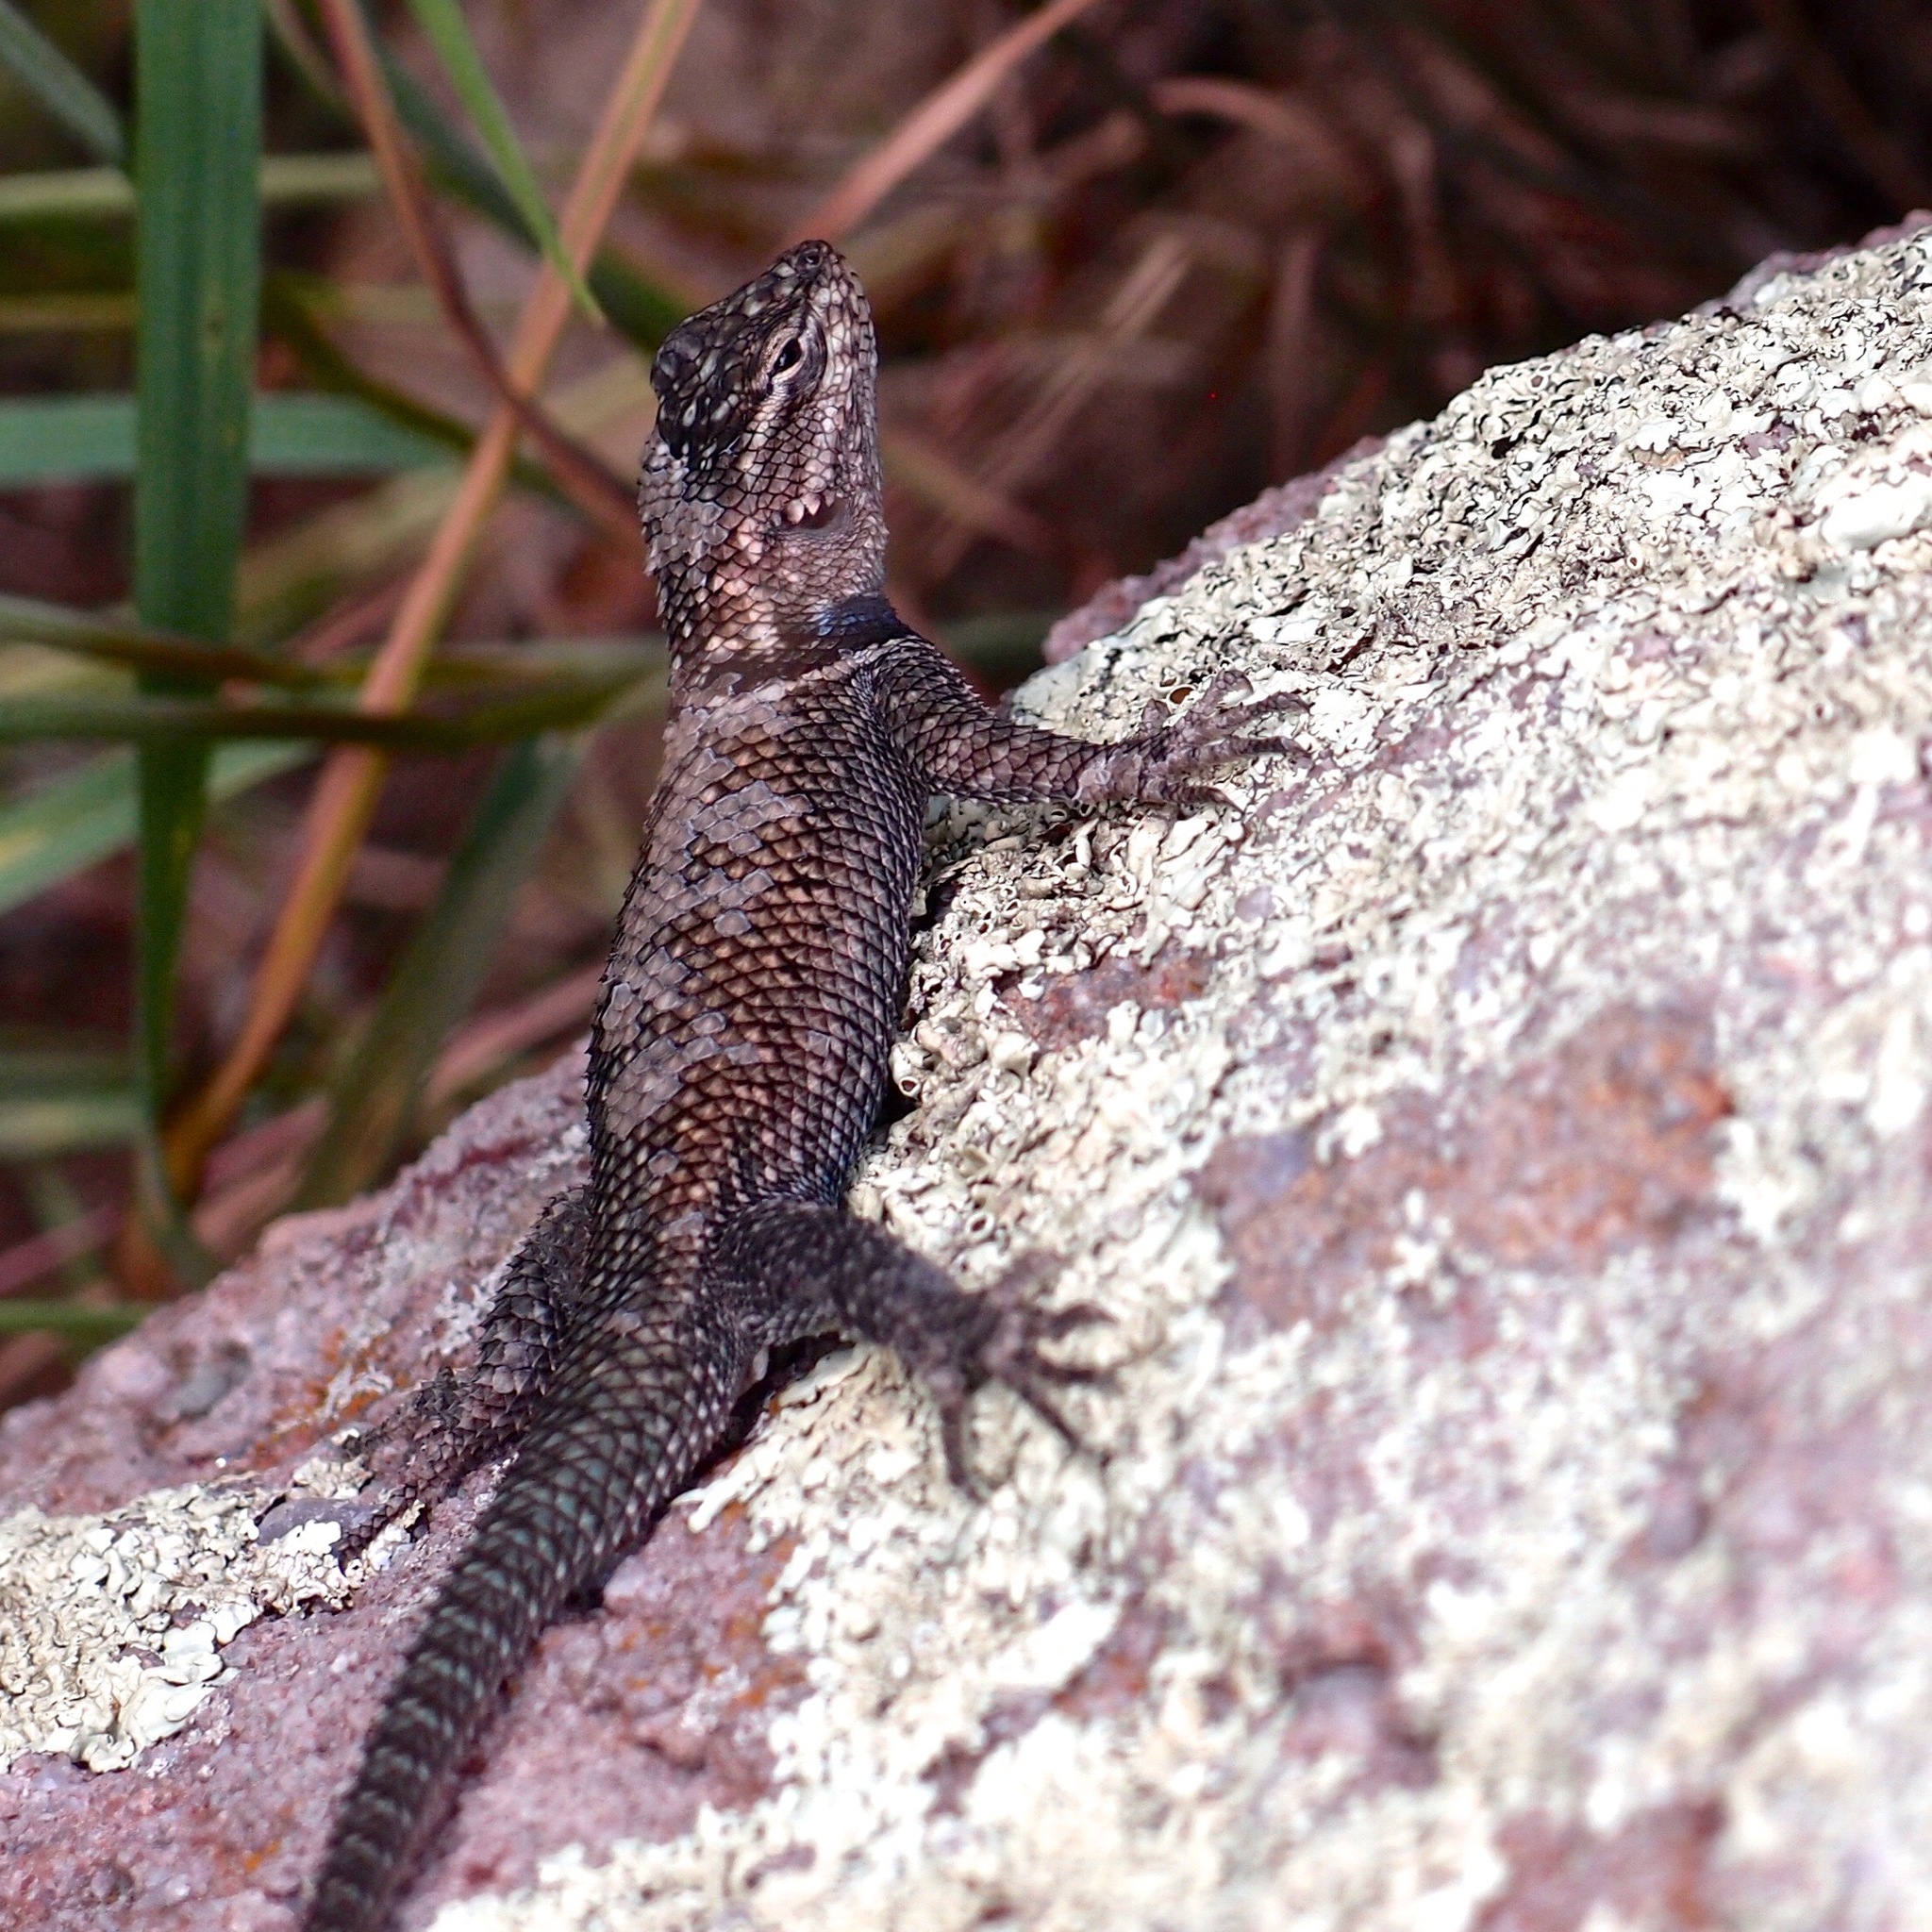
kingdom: Animalia
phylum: Chordata
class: Squamata
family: Phrynosomatidae
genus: Sceloporus
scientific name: Sceloporus jarrovii
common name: Yarrow's spiny lizard
